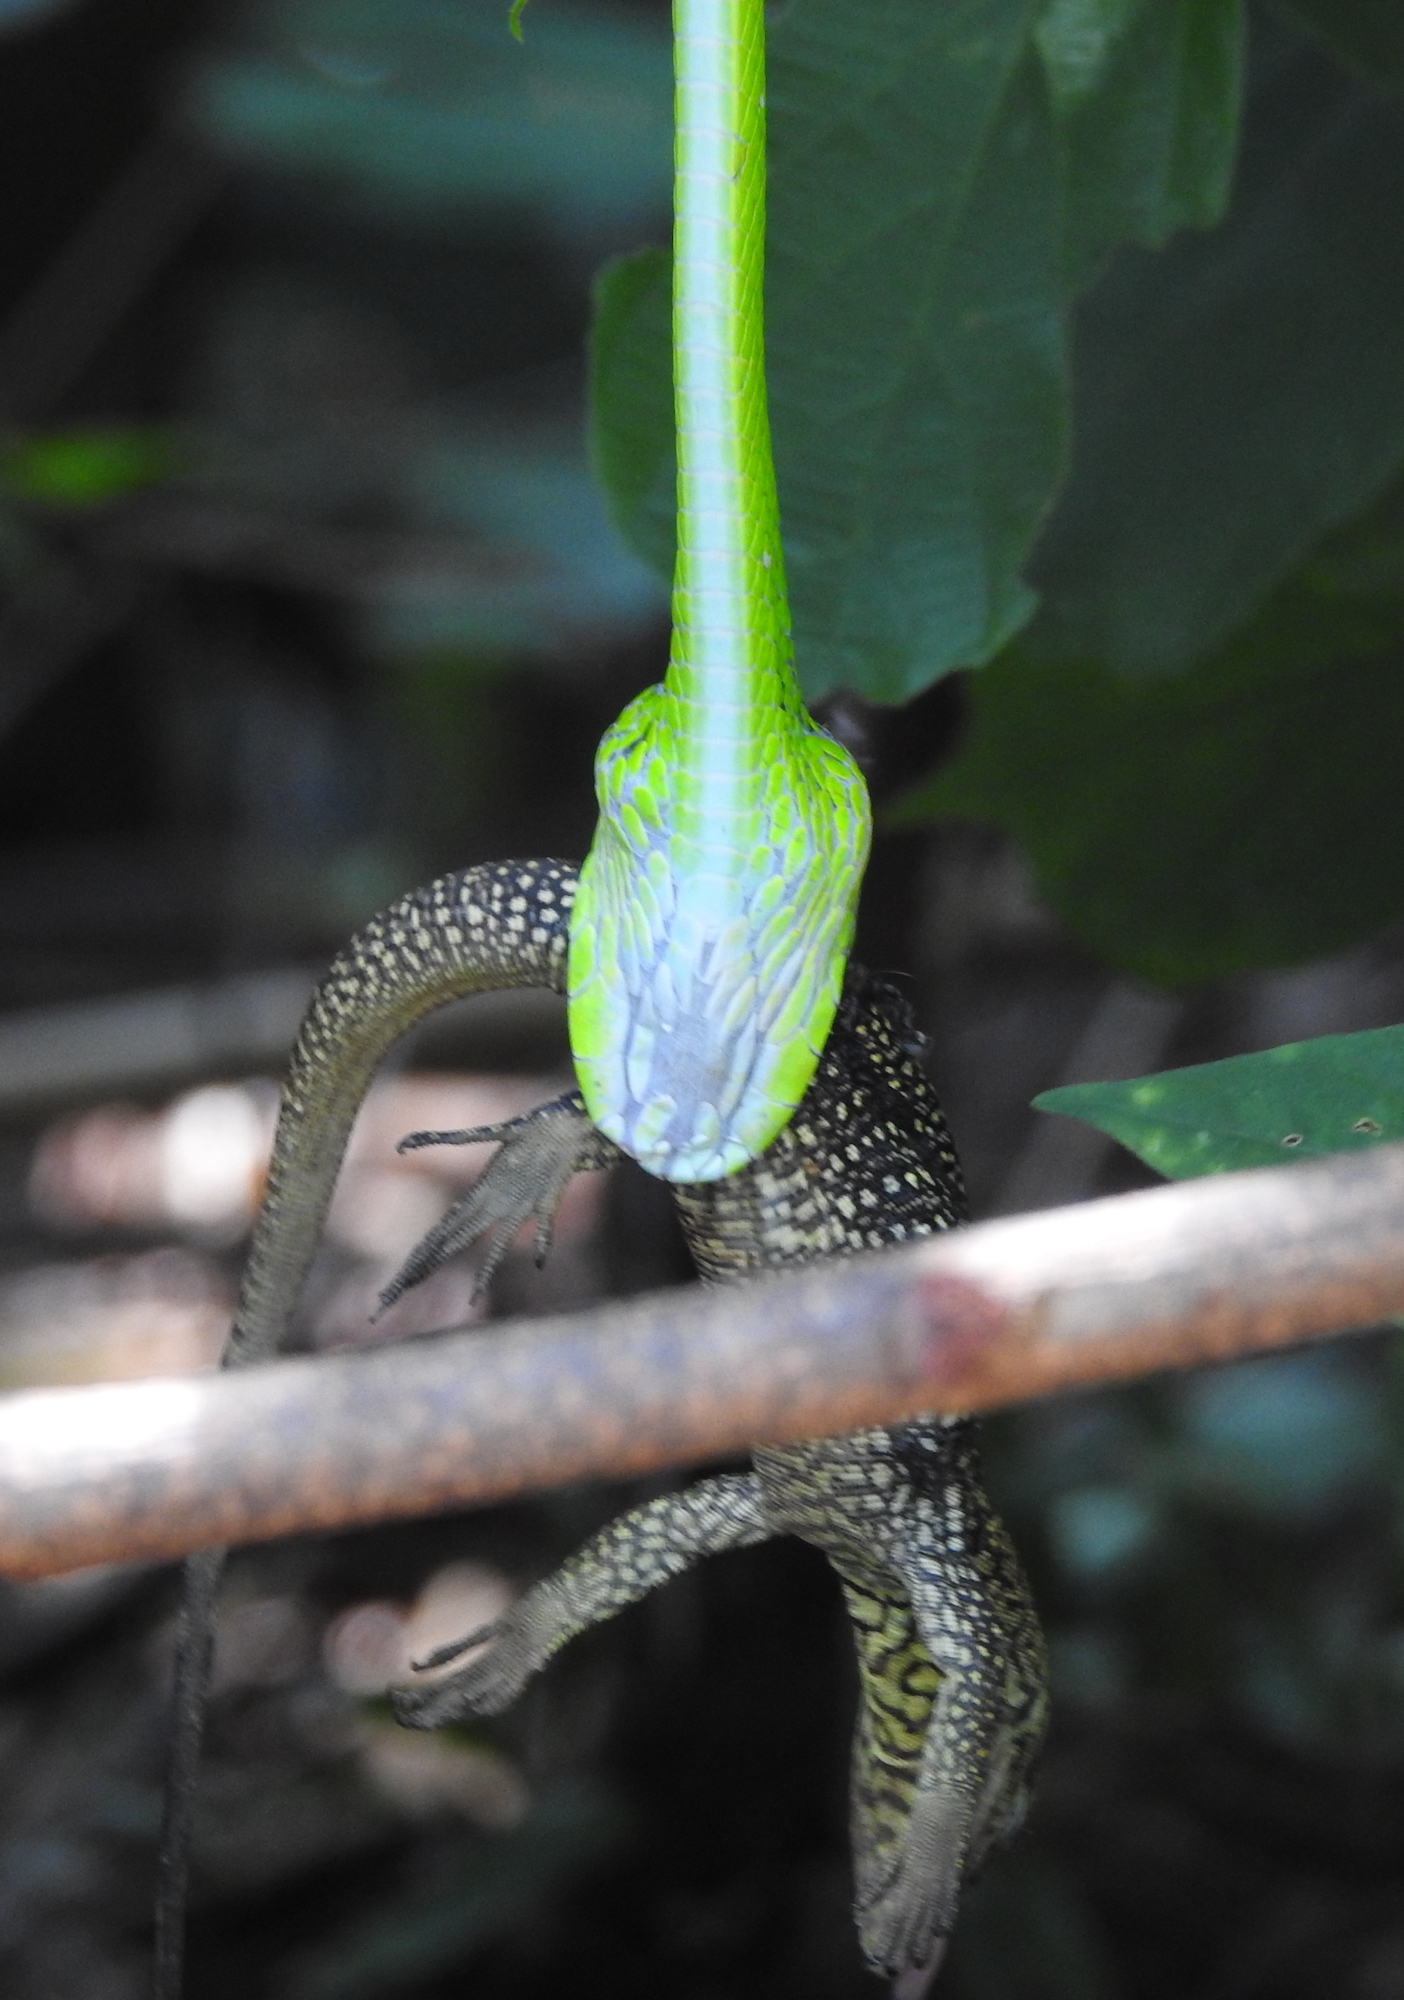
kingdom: Animalia
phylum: Chordata
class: Squamata
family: Colubridae
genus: Ahaetulla
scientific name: Ahaetulla prasina
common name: Oriental whip snake
